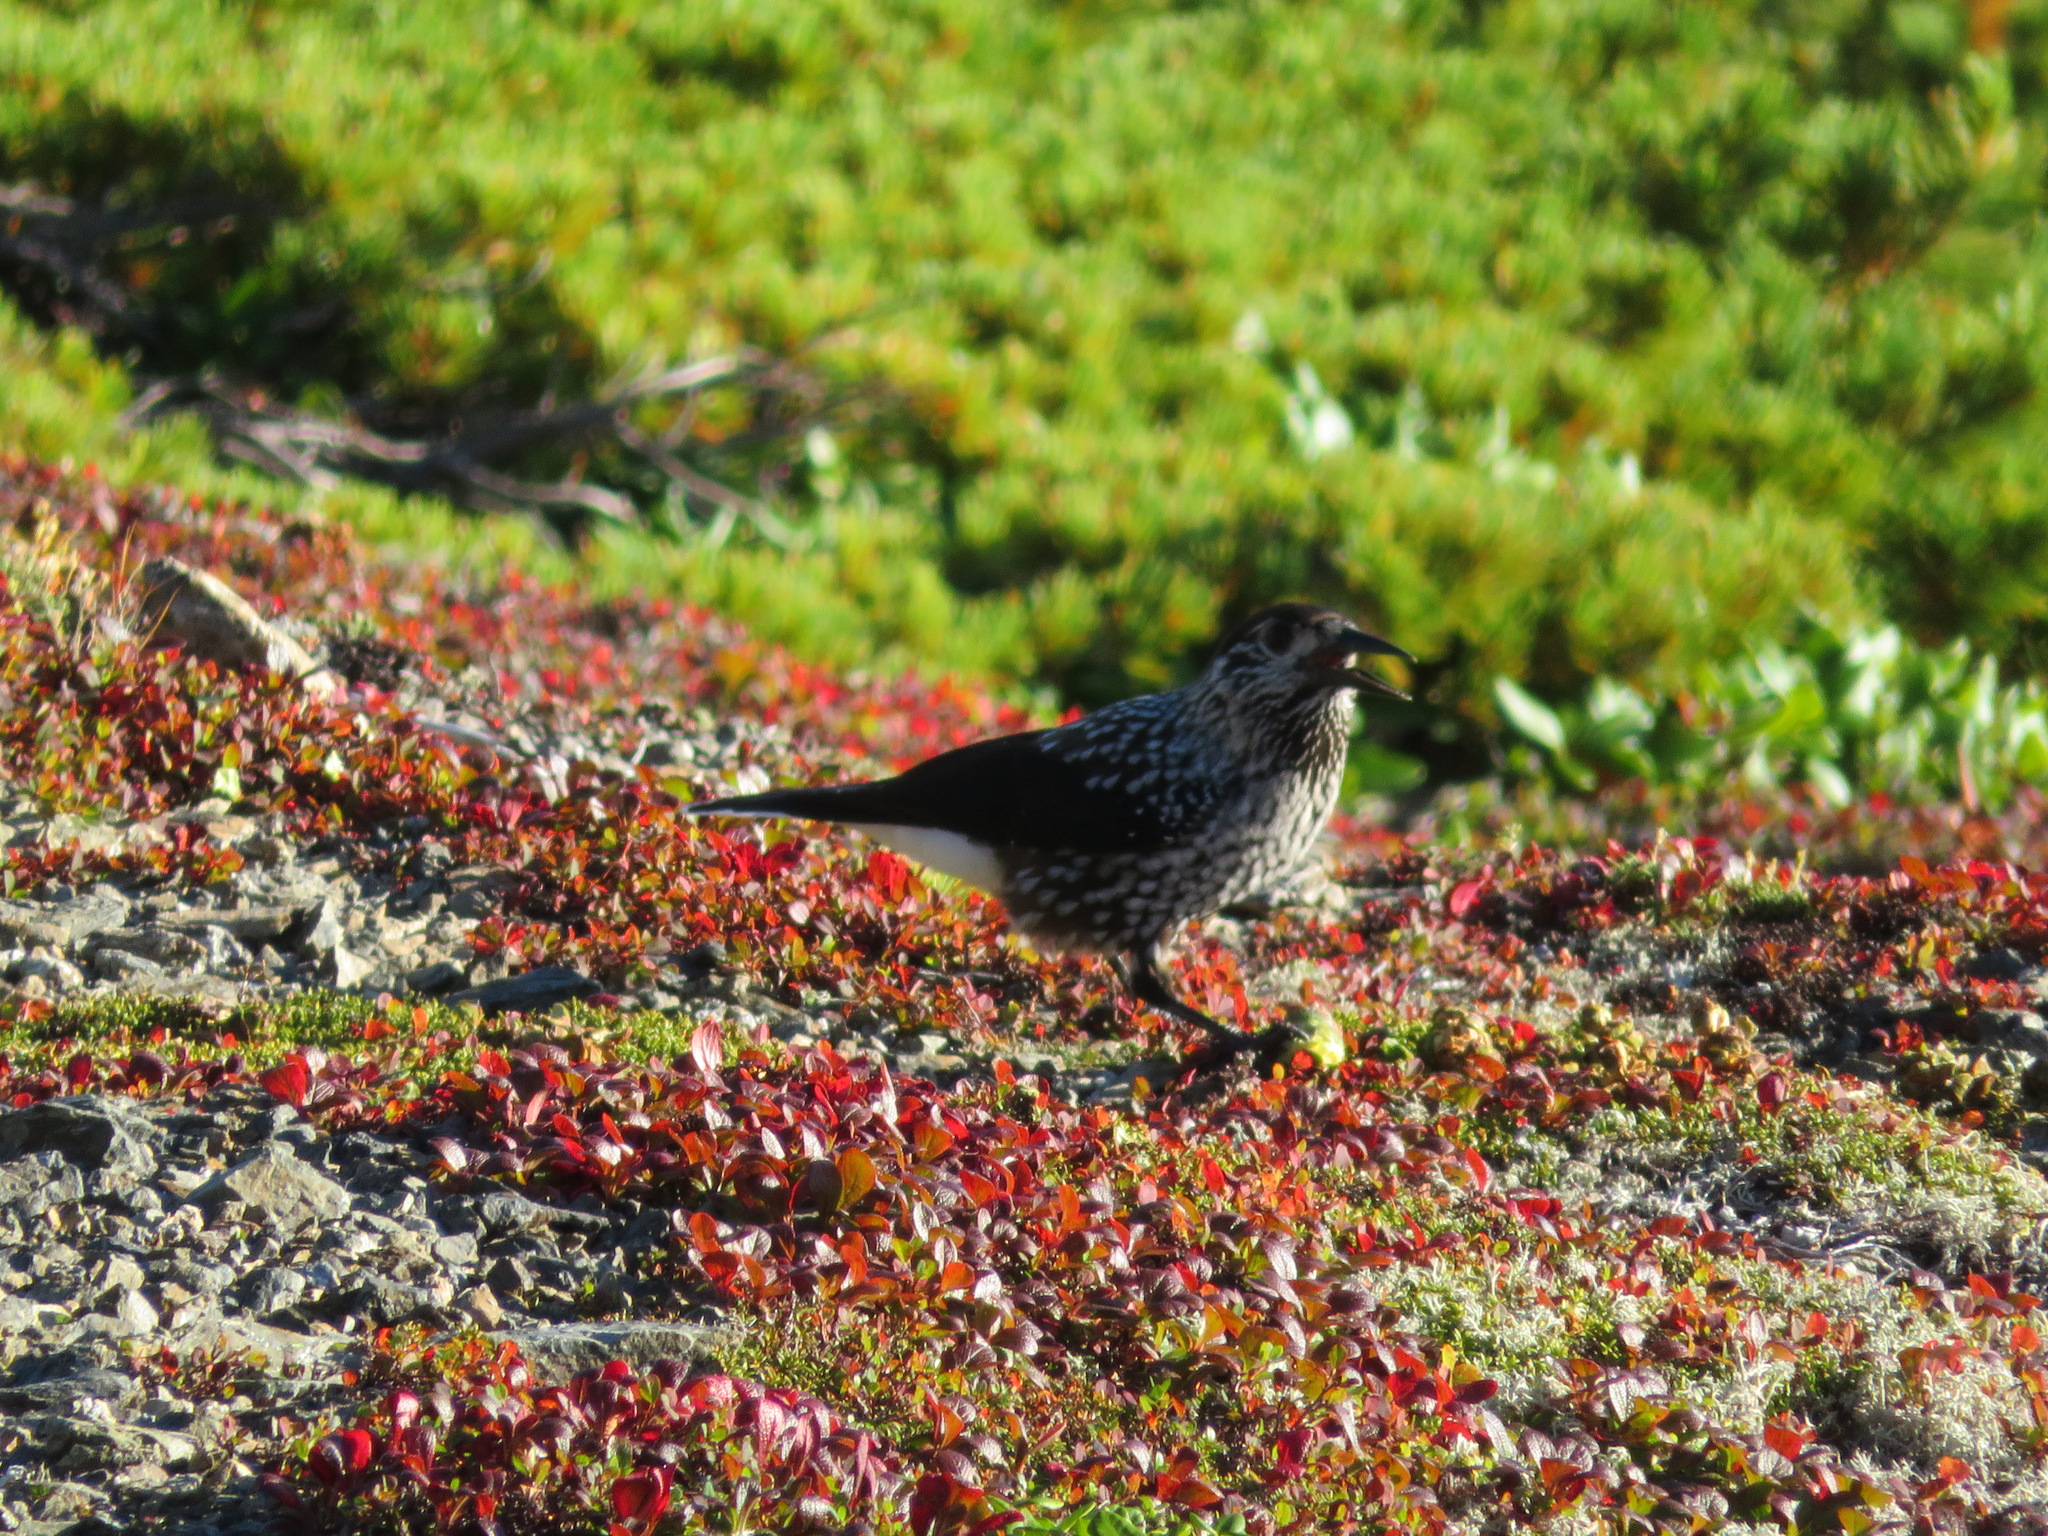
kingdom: Animalia
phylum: Chordata
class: Aves
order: Passeriformes
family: Corvidae
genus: Nucifraga
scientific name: Nucifraga caryocatactes
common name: Spotted nutcracker
